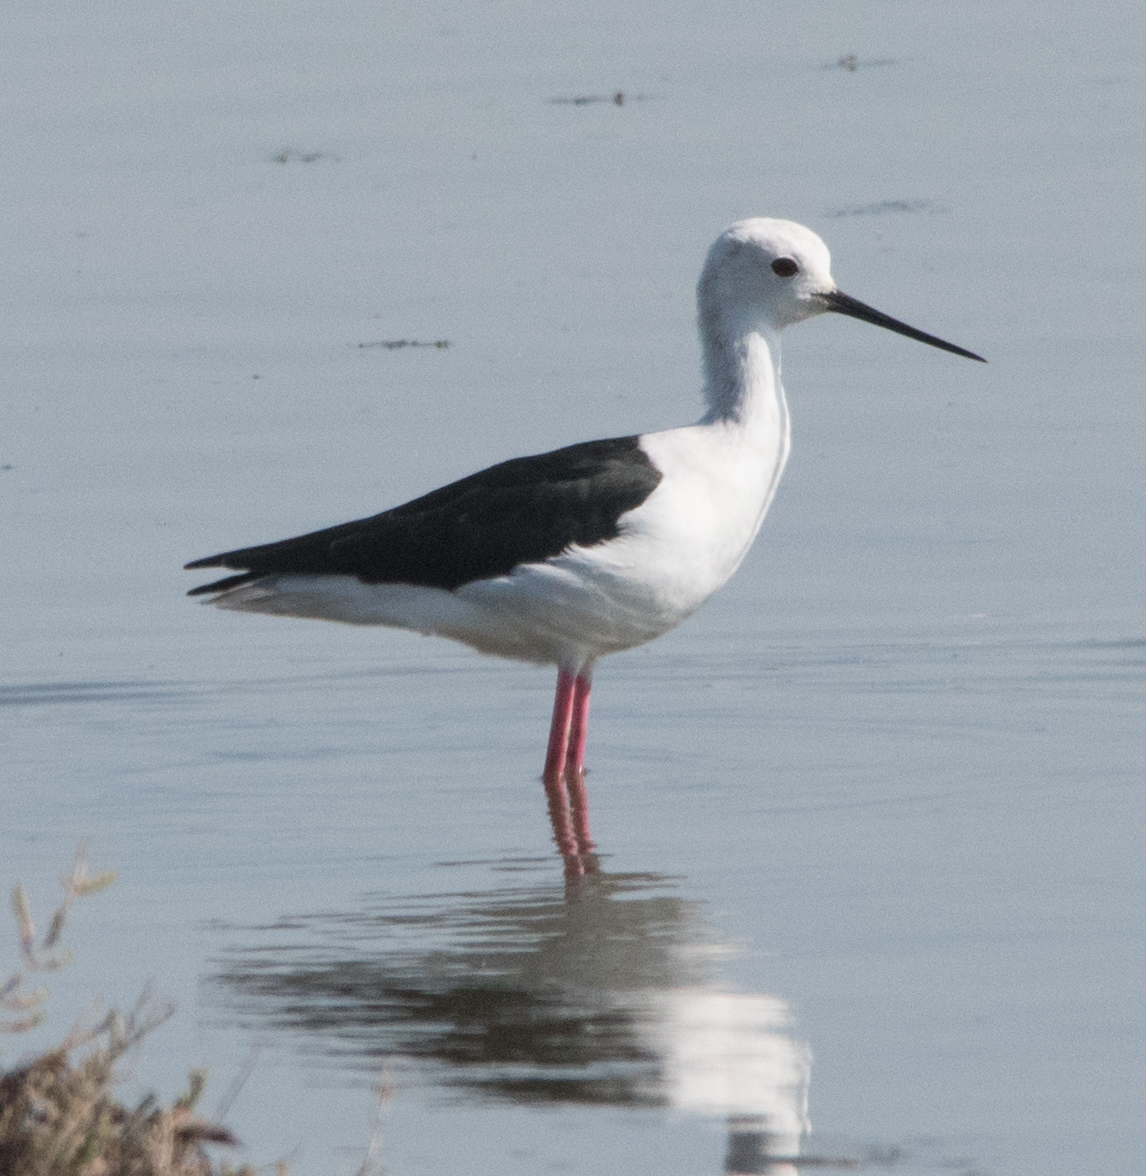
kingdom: Animalia
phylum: Chordata
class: Aves
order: Charadriiformes
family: Recurvirostridae
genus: Himantopus
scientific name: Himantopus himantopus
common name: Black-winged stilt
